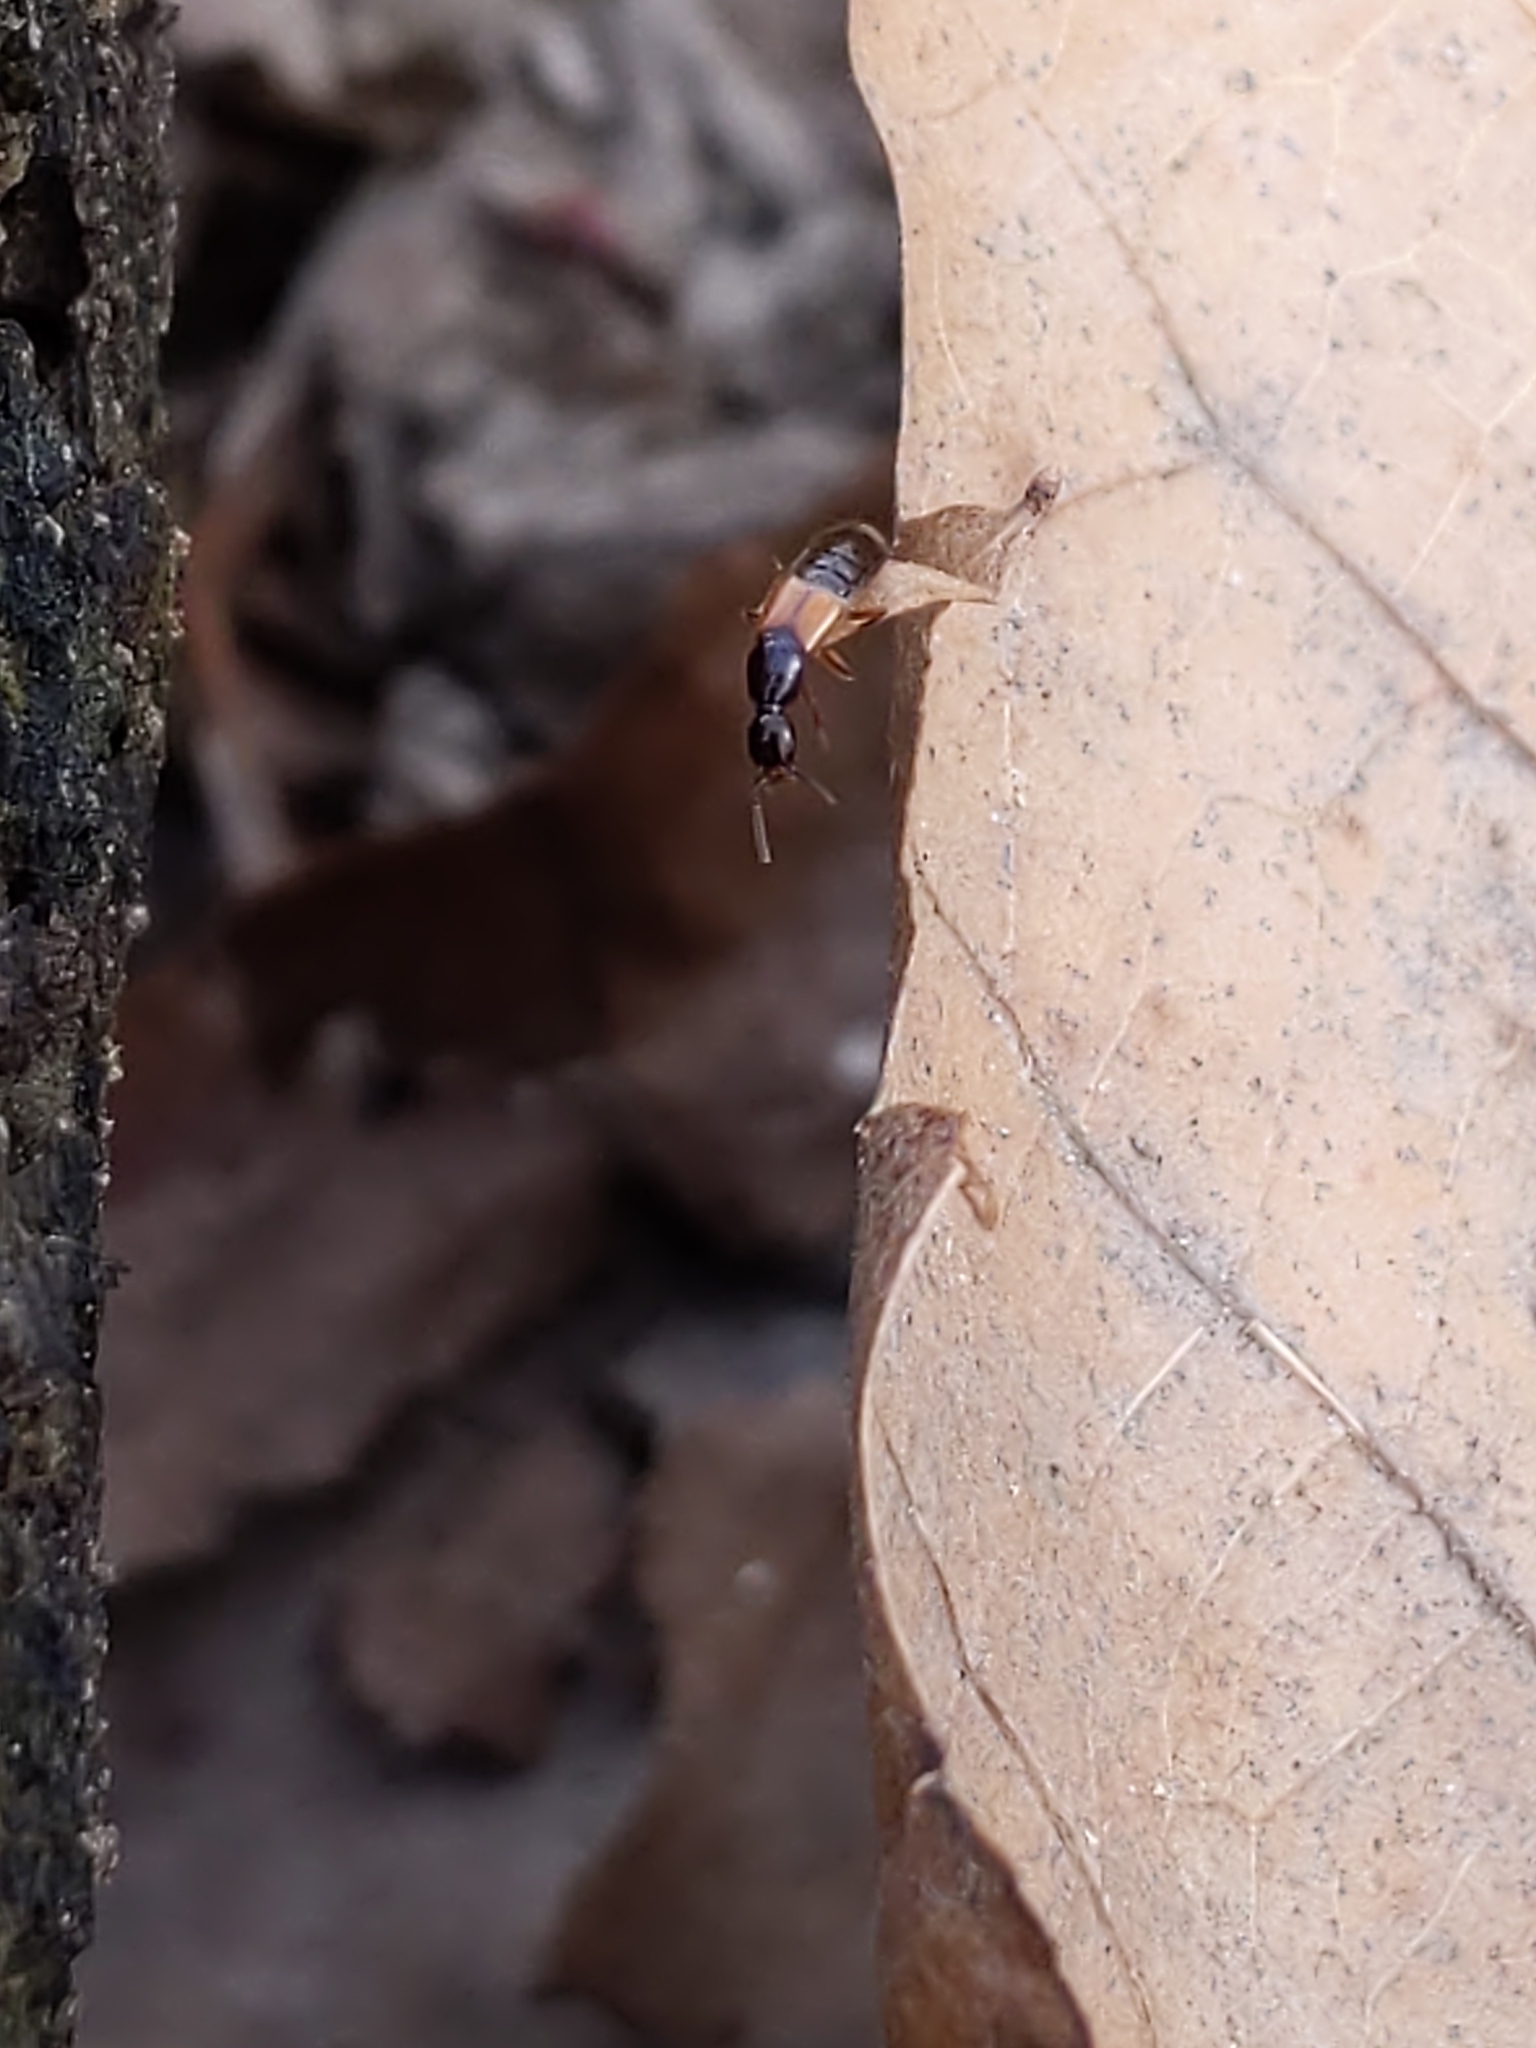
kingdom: Animalia
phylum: Arthropoda
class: Insecta
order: Coleoptera
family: Staphylinidae
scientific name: Staphylinidae
